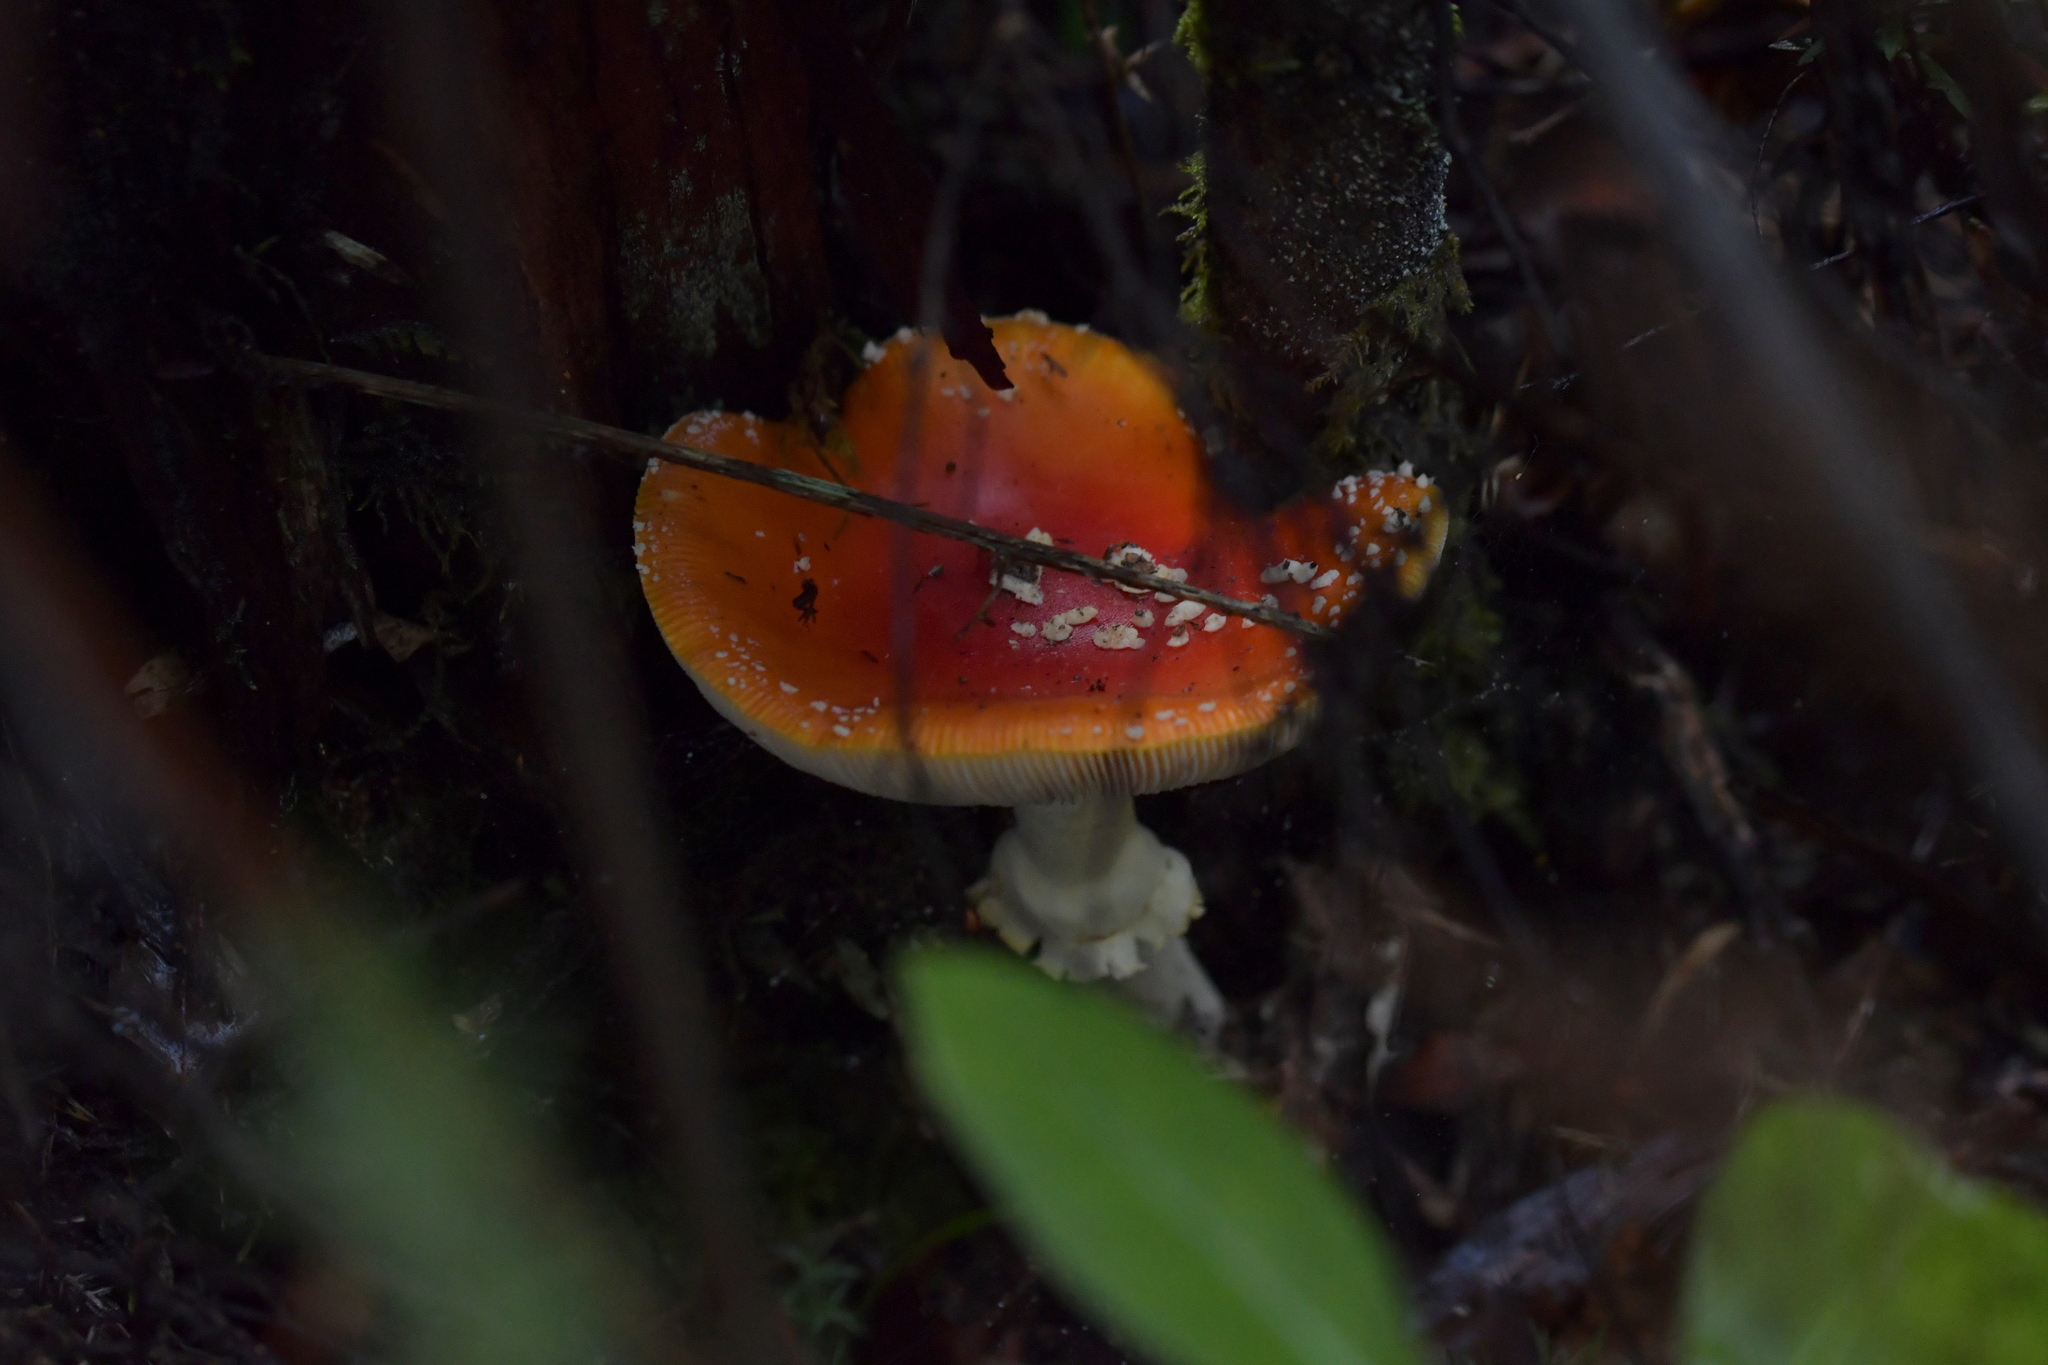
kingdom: Fungi
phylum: Basidiomycota
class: Agaricomycetes
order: Agaricales
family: Amanitaceae
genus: Amanita
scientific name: Amanita muscaria
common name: Fly agaric
